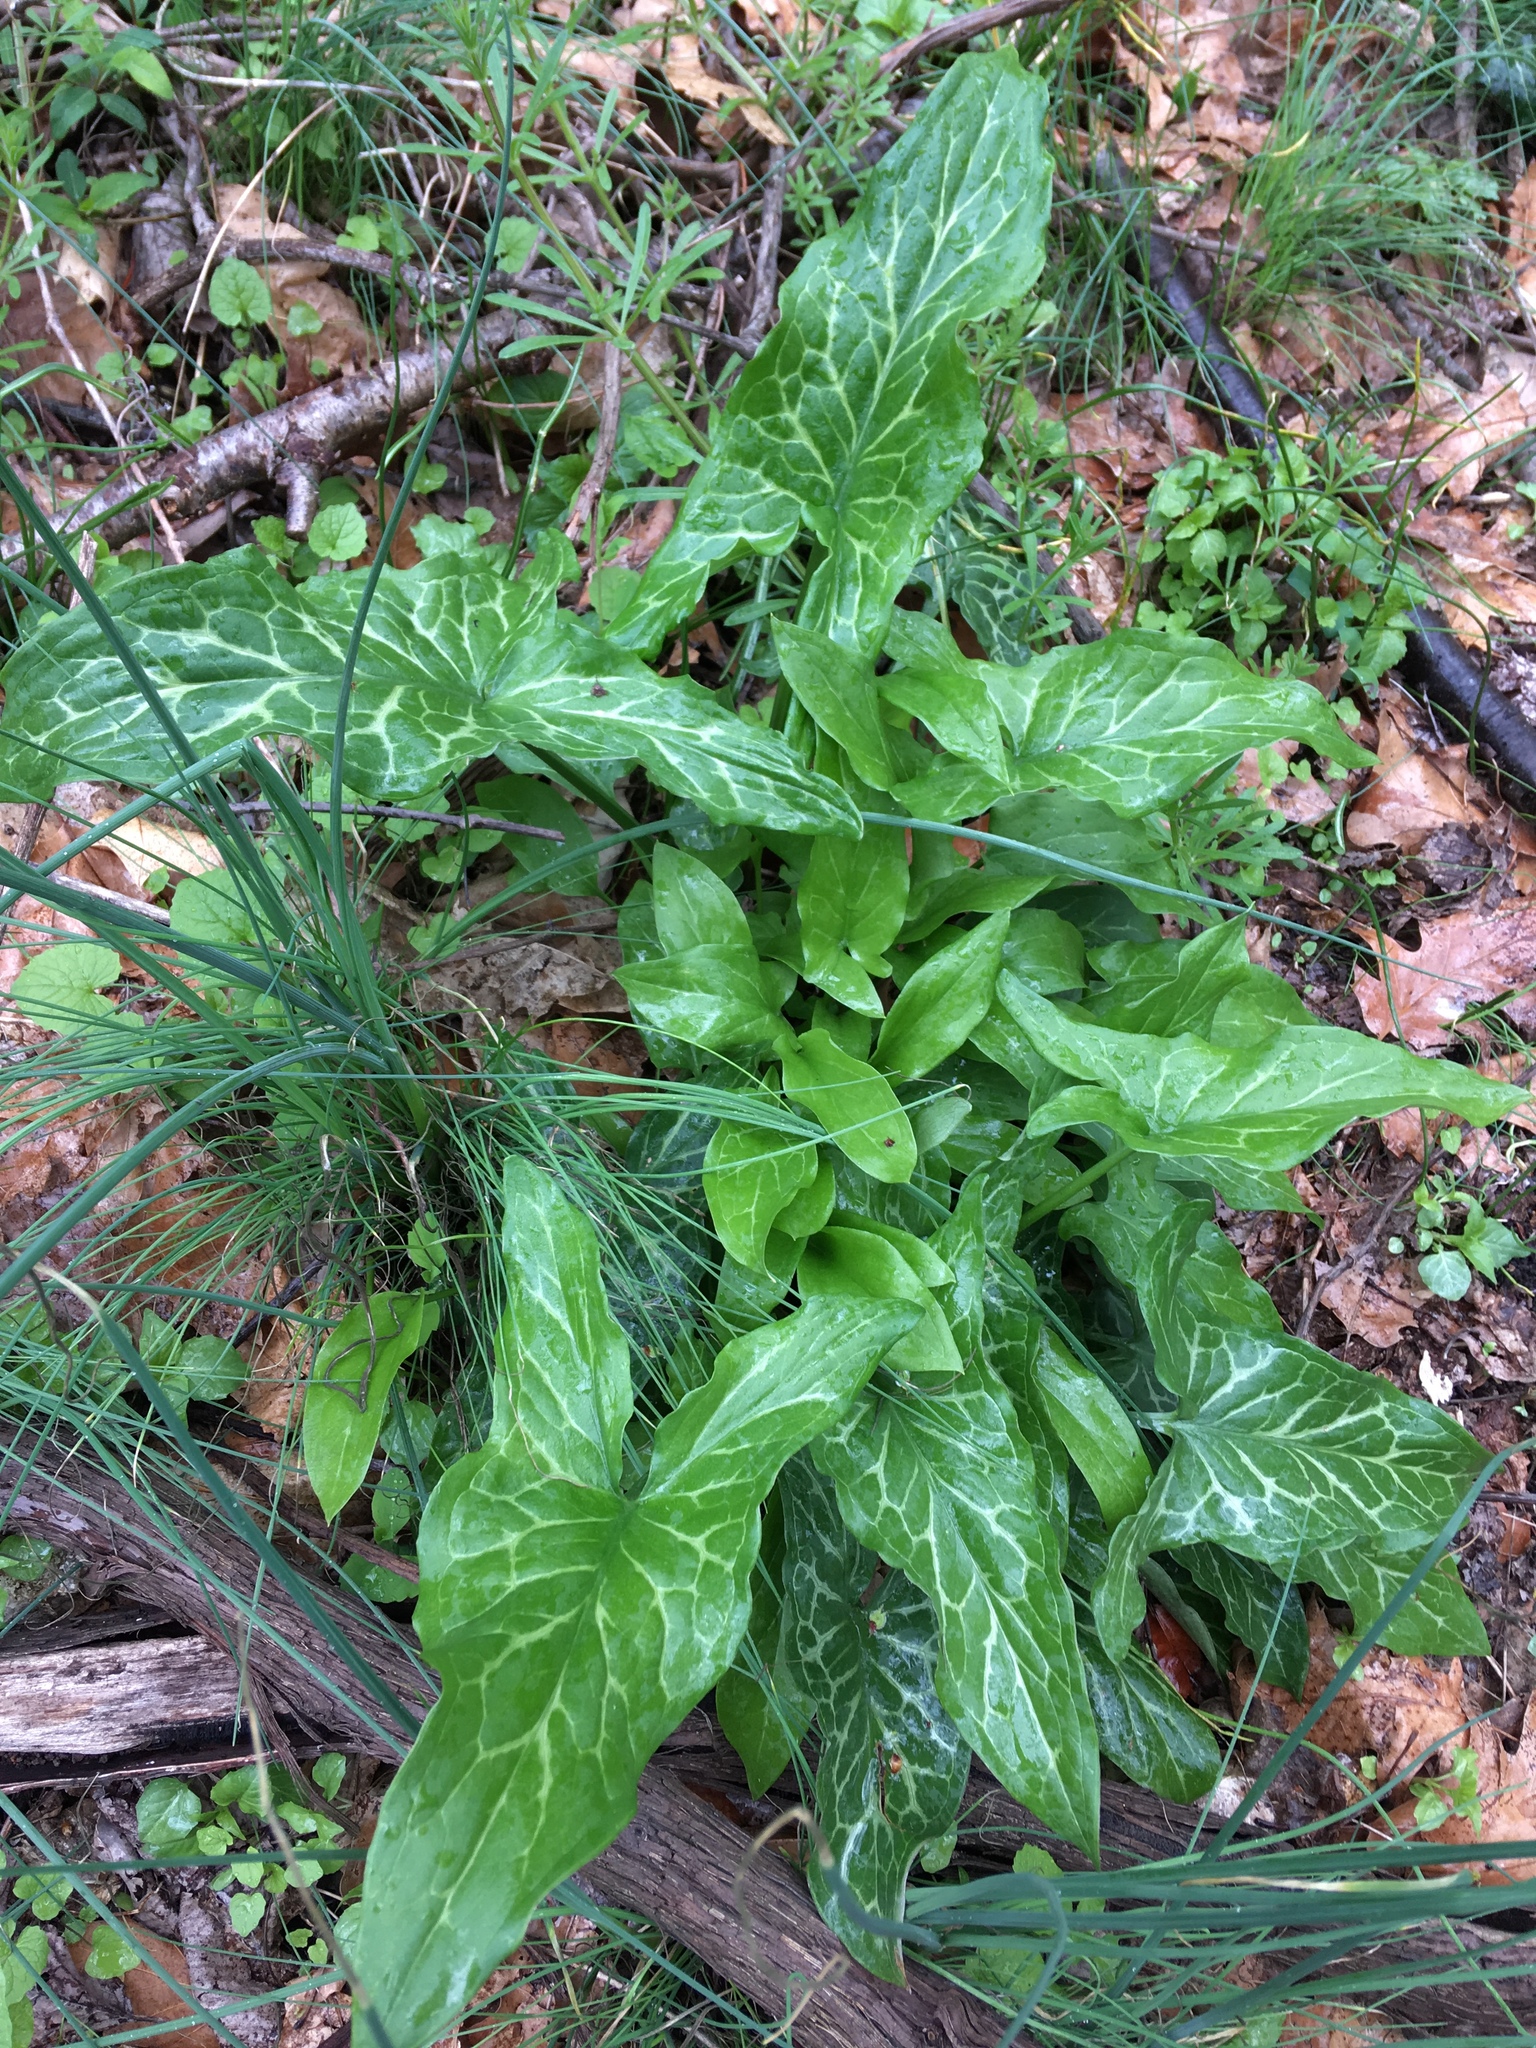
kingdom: Plantae
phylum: Tracheophyta
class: Liliopsida
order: Alismatales
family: Araceae
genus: Arum
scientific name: Arum italicum
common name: Italian lords-and-ladies
